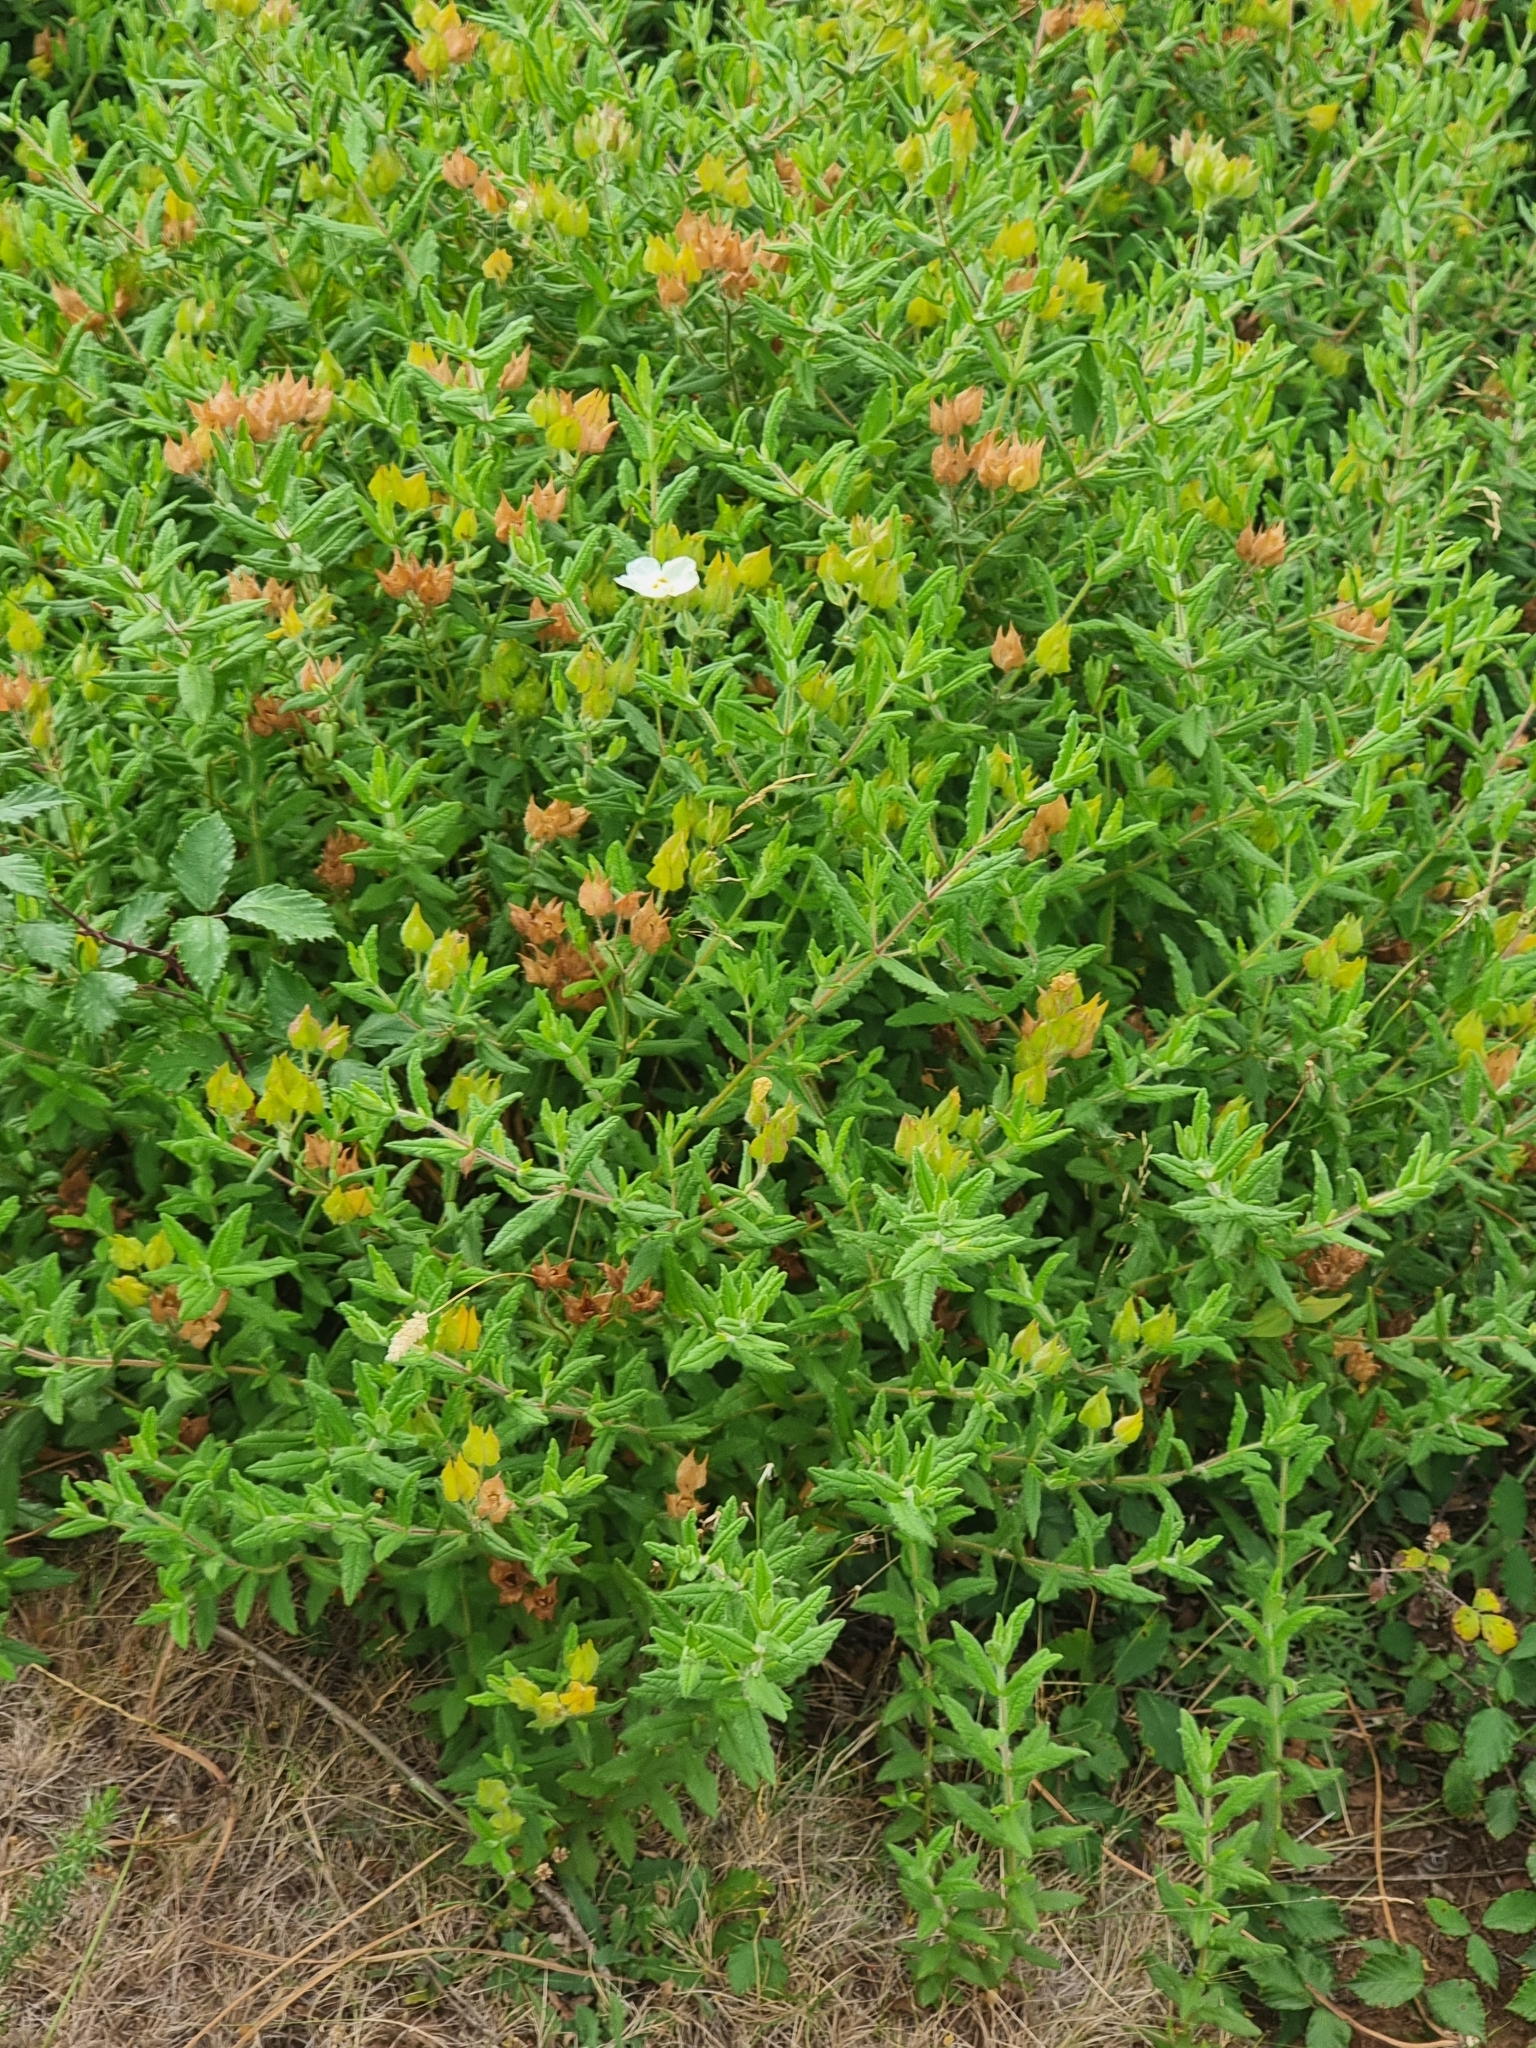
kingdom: Plantae
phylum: Tracheophyta
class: Magnoliopsida
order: Malvales
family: Cistaceae
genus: Cistus
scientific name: Cistus inflatus
